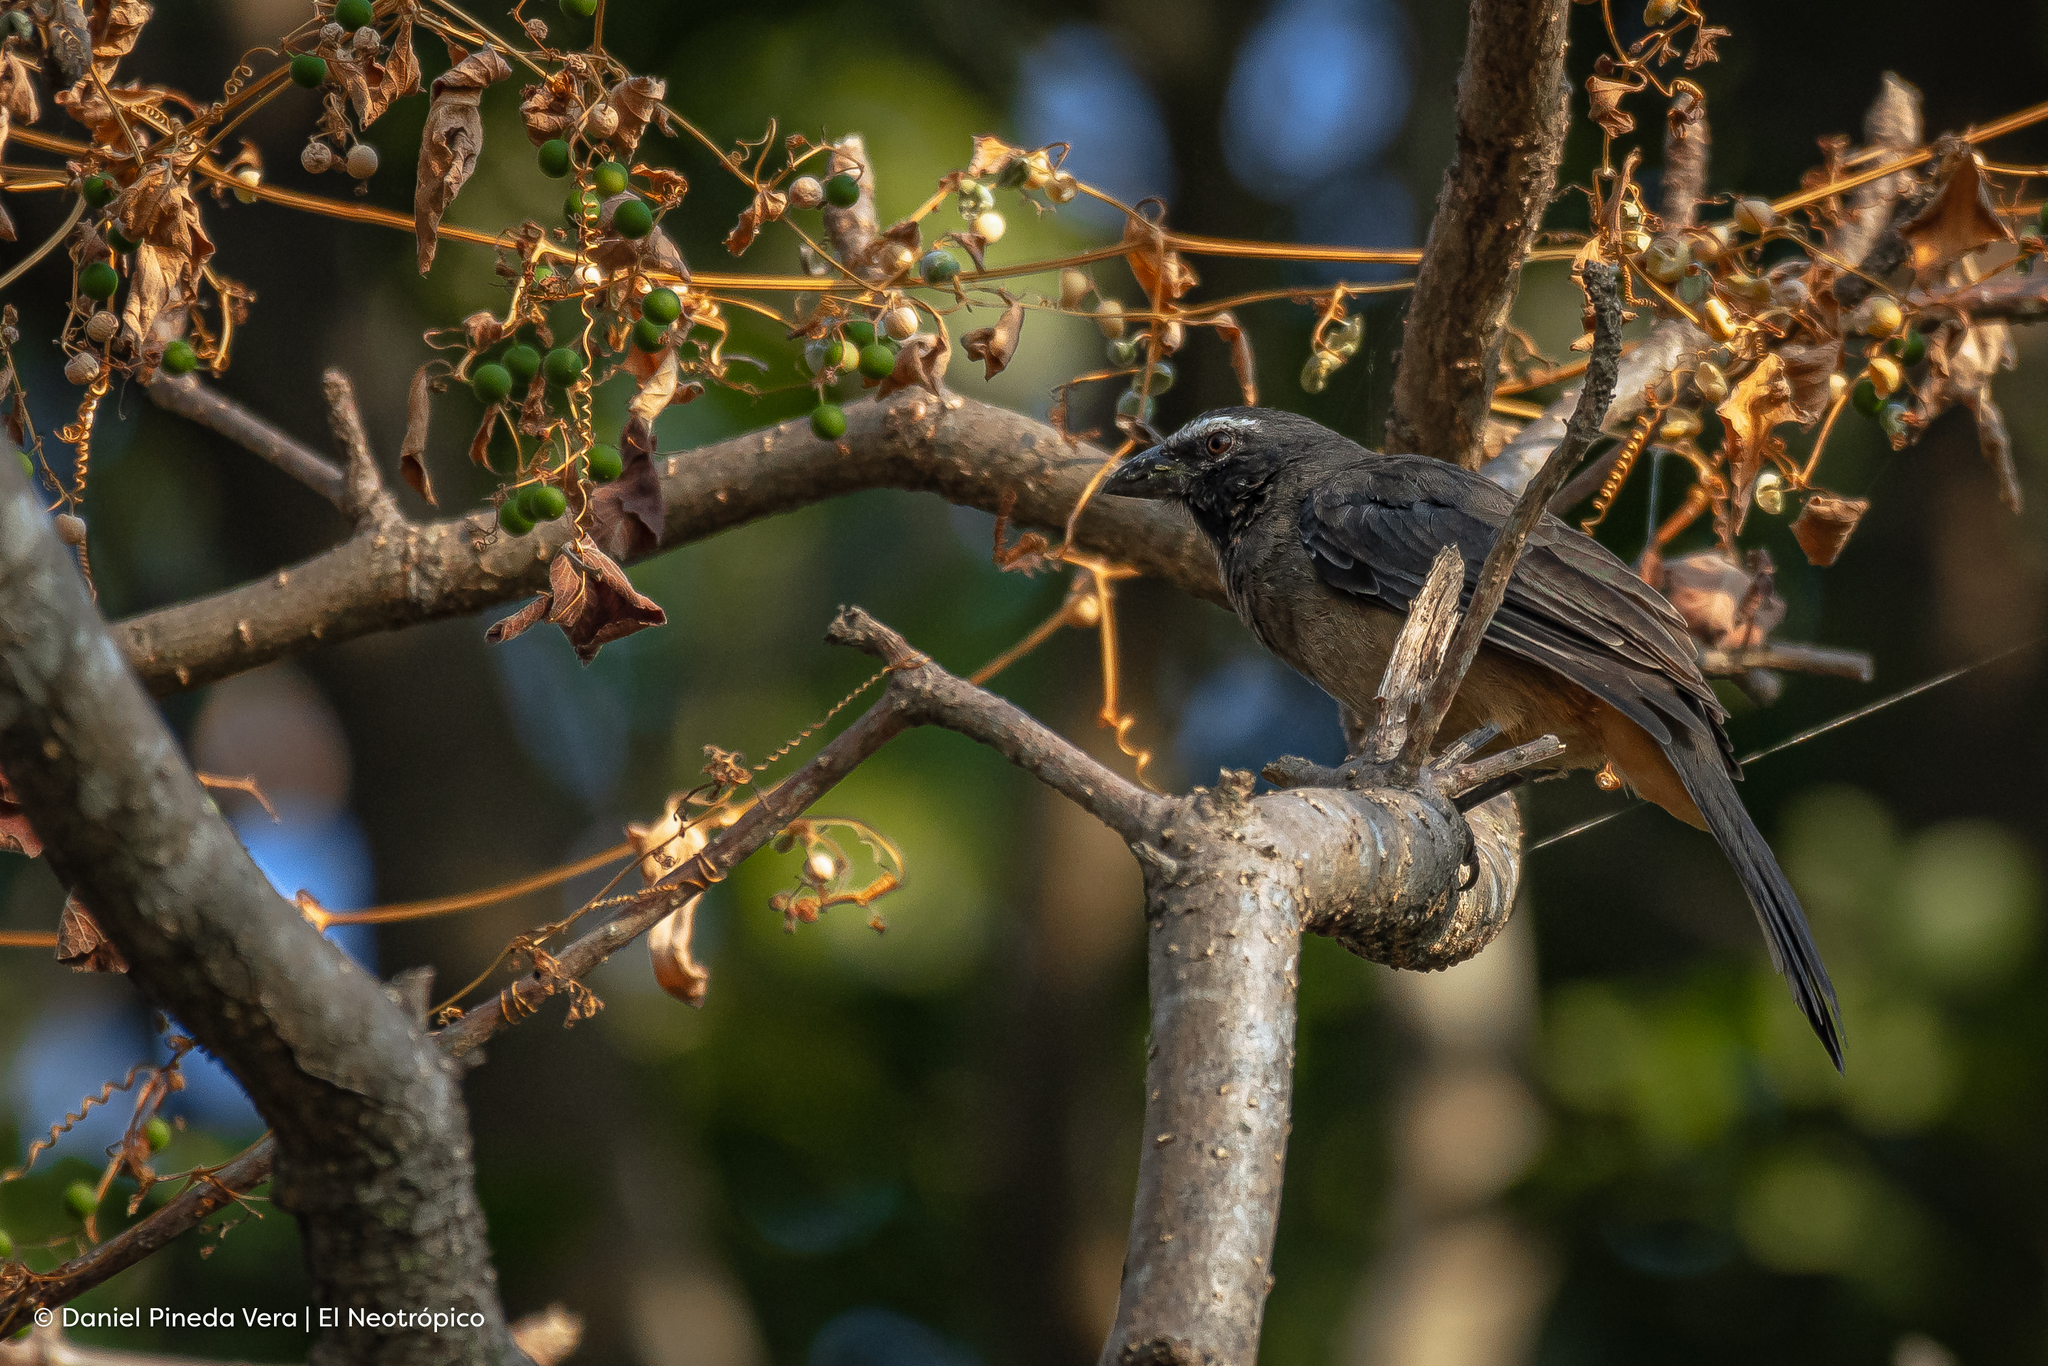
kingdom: Animalia
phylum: Chordata
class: Aves
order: Passeriformes
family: Thraupidae
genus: Saltator
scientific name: Saltator grandis
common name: Cinnamon-bellied saltator
